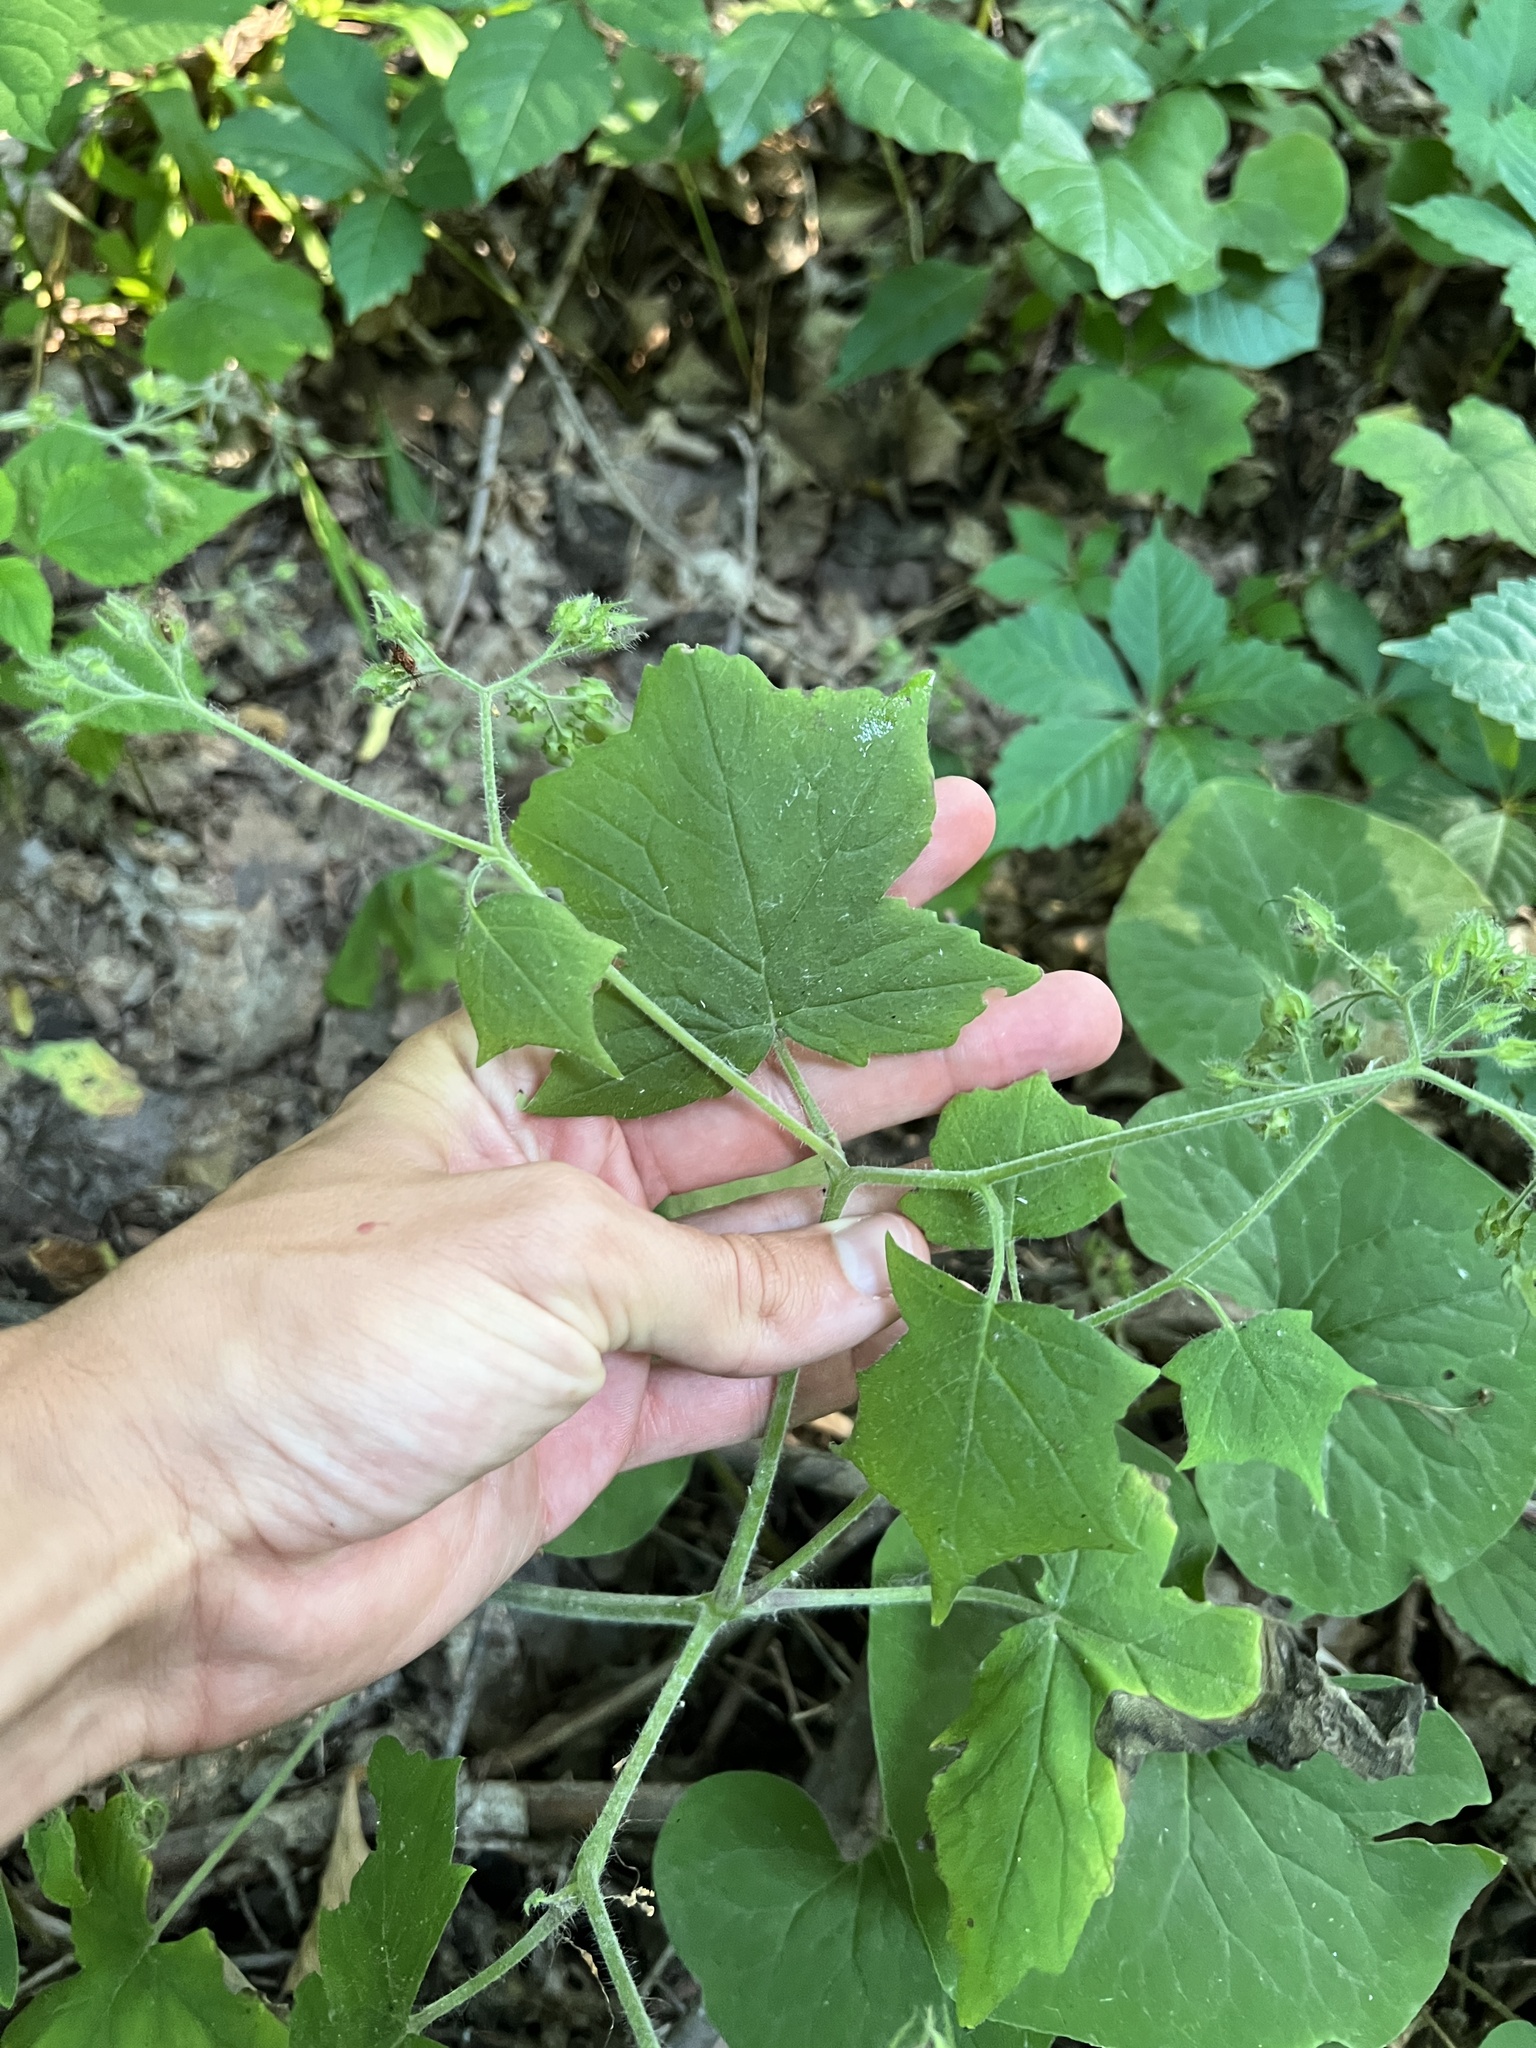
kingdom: Plantae
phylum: Tracheophyta
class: Magnoliopsida
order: Boraginales
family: Hydrophyllaceae
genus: Hydrophyllum
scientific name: Hydrophyllum appendiculatum
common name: Appendaged waterleaf
